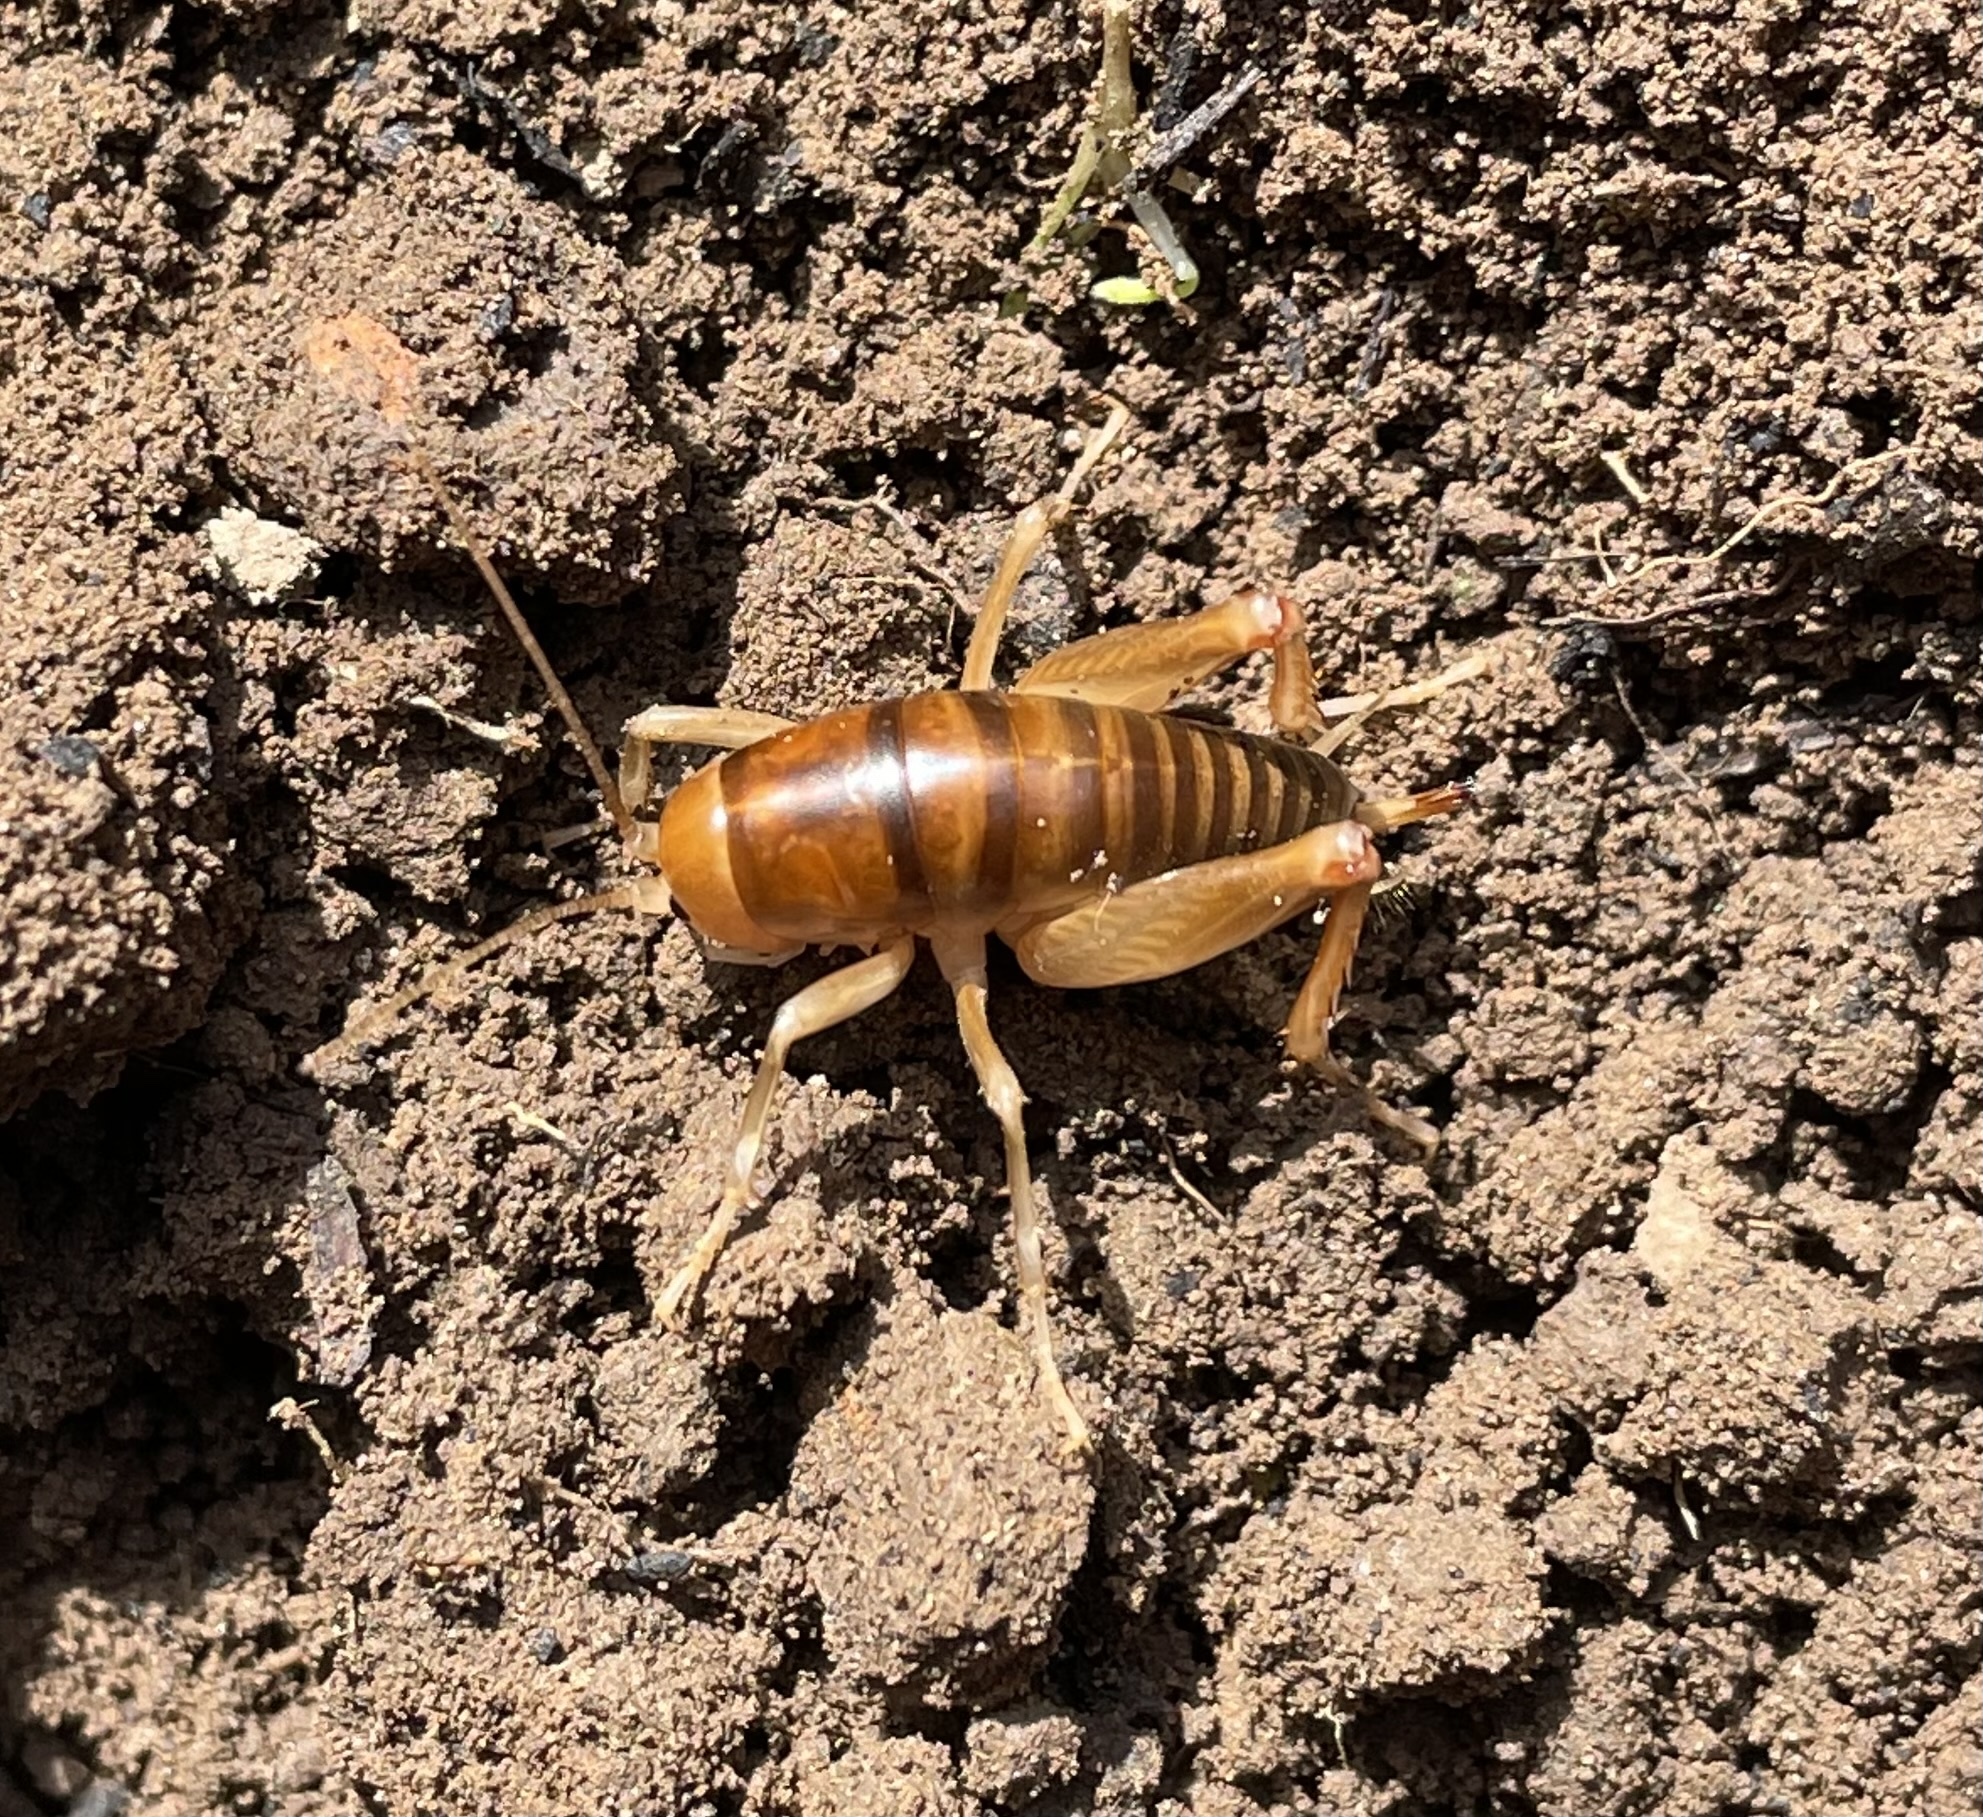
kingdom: Animalia
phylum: Arthropoda
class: Insecta
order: Orthoptera
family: Rhaphidophoridae
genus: Ceuthophilus
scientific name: Ceuthophilus californianus
